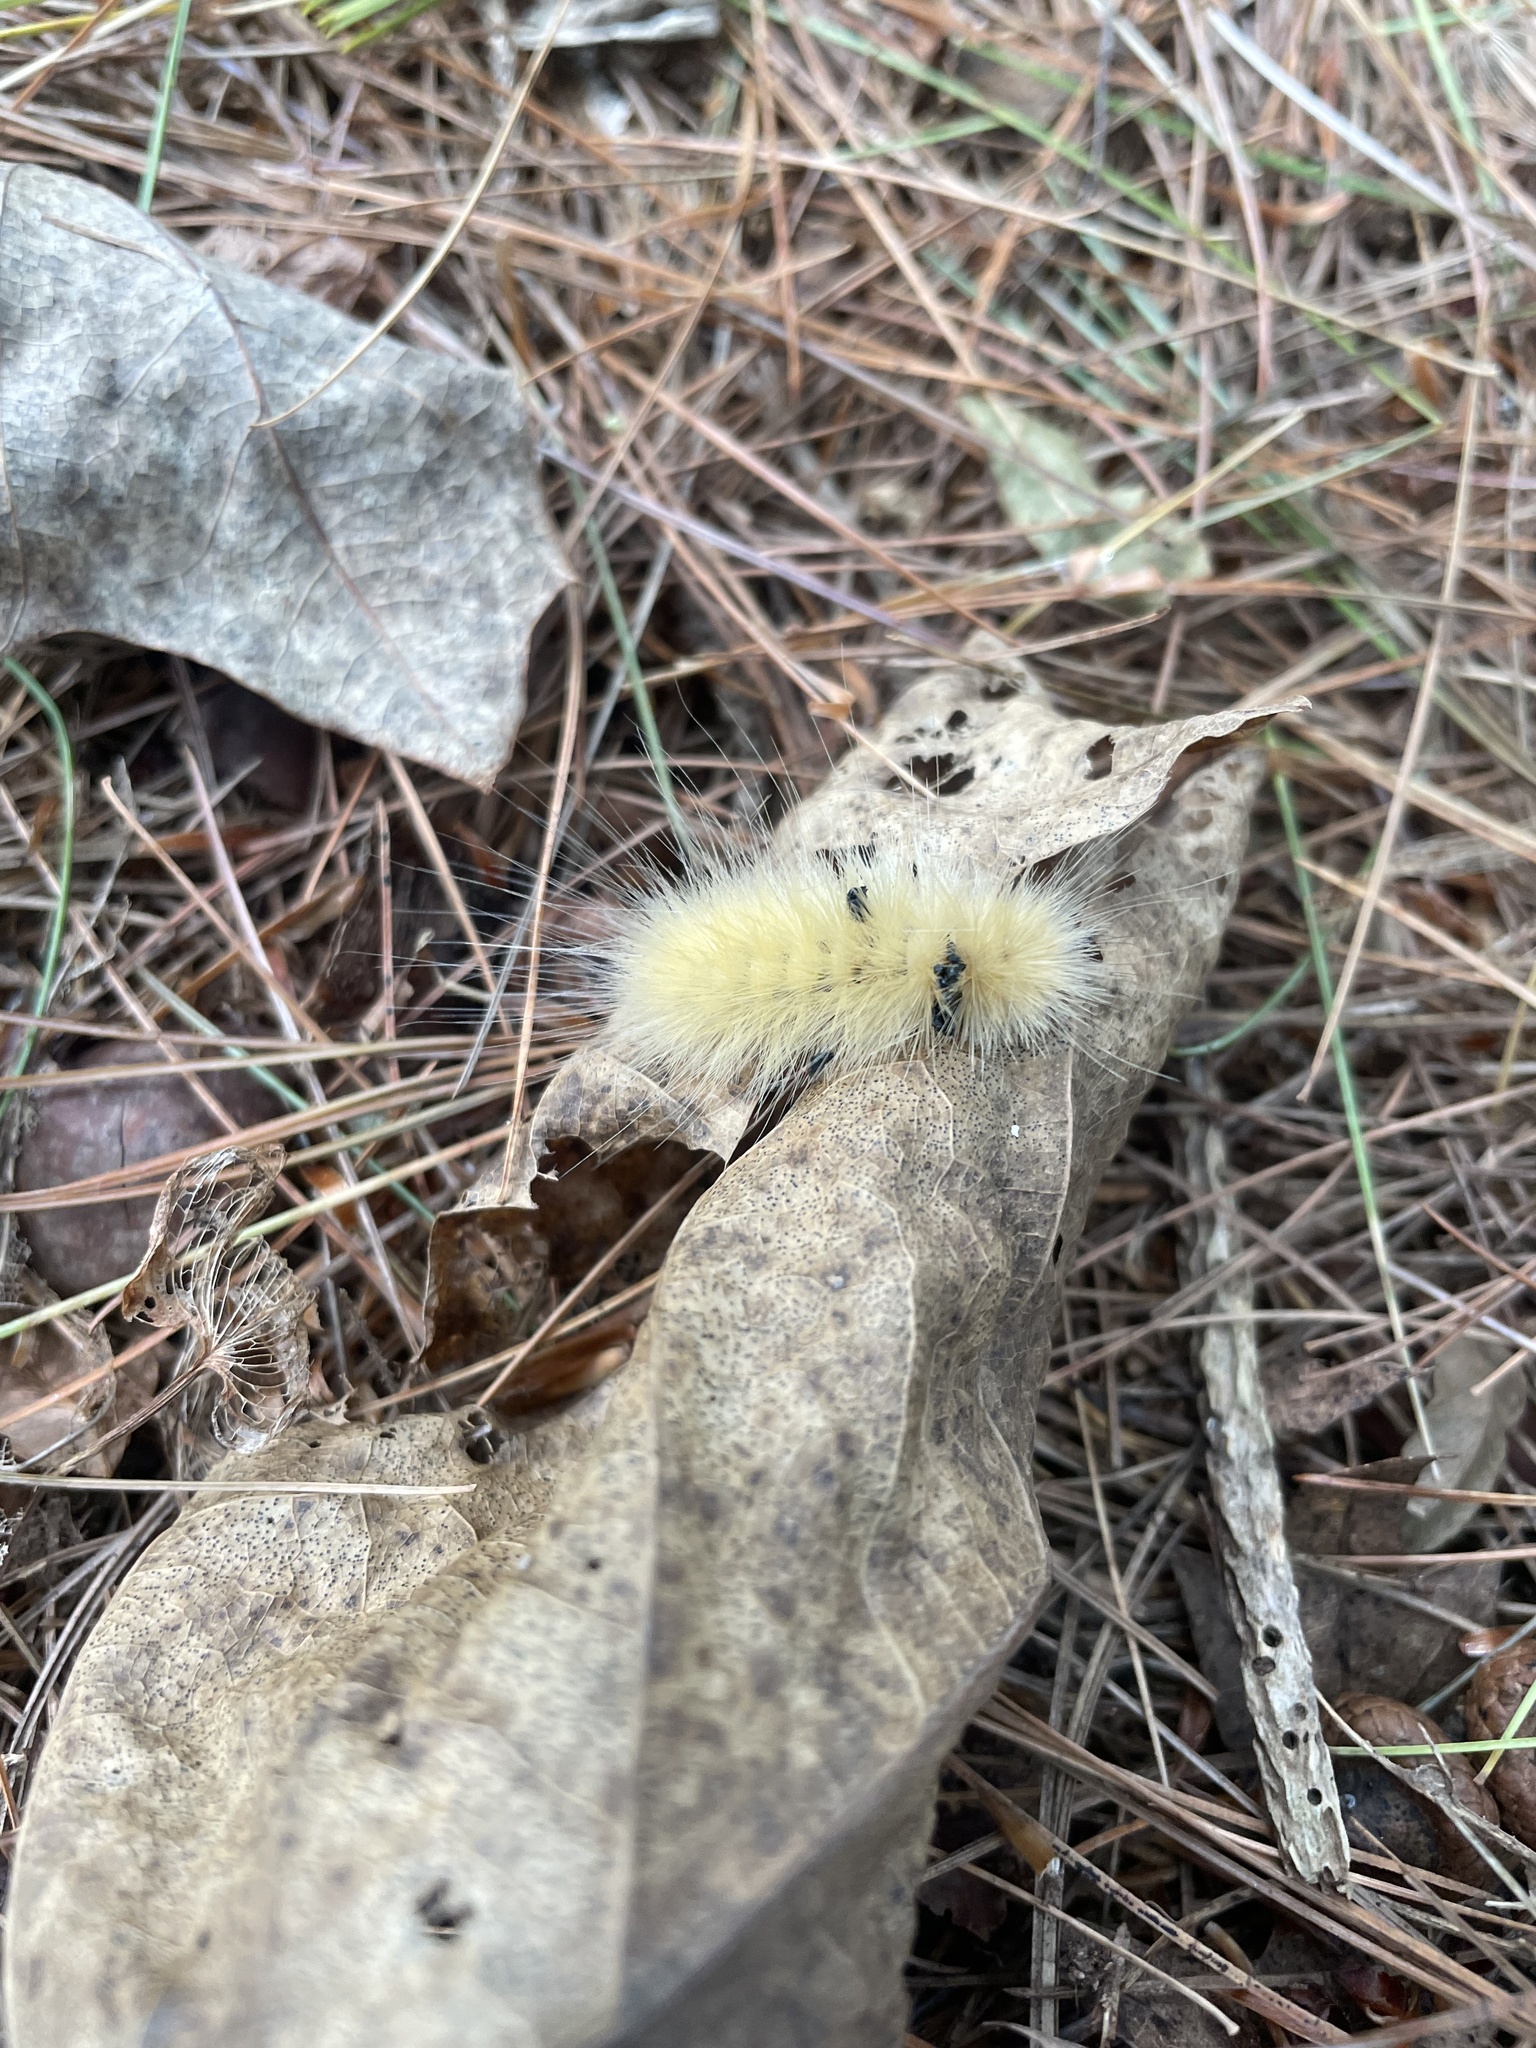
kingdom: Animalia
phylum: Arthropoda
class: Insecta
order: Lepidoptera
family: Erebidae
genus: Spilosoma
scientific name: Spilosoma virginica
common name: Virginia tiger moth
